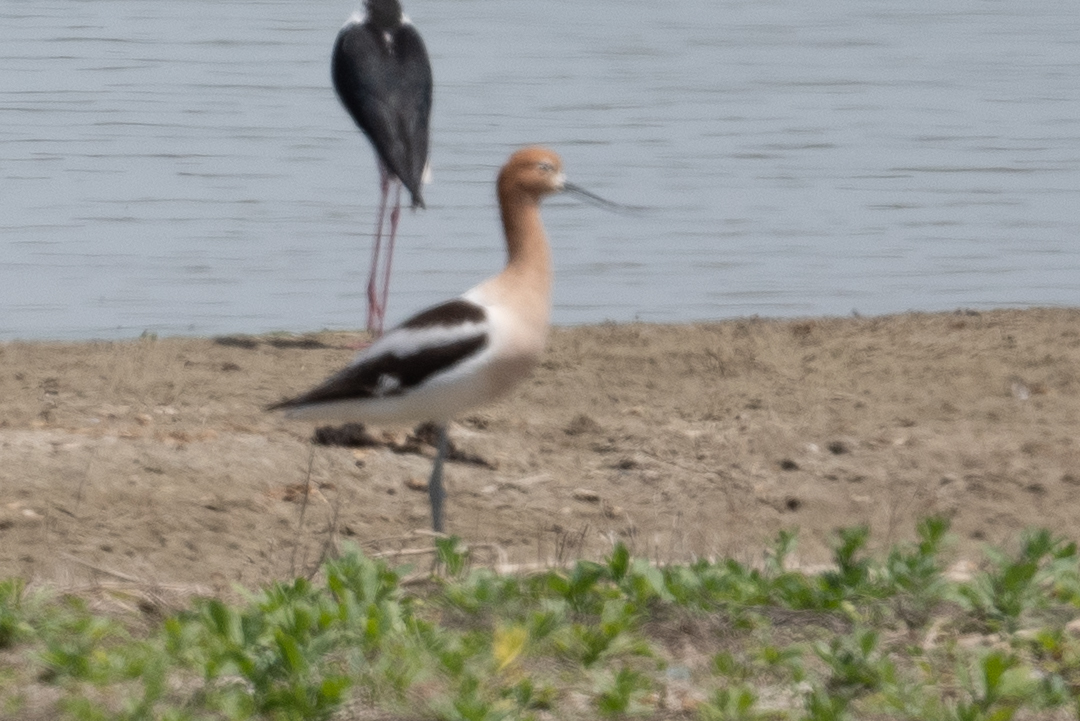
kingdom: Animalia
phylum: Chordata
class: Aves
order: Charadriiformes
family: Recurvirostridae
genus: Recurvirostra
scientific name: Recurvirostra americana
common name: American avocet
